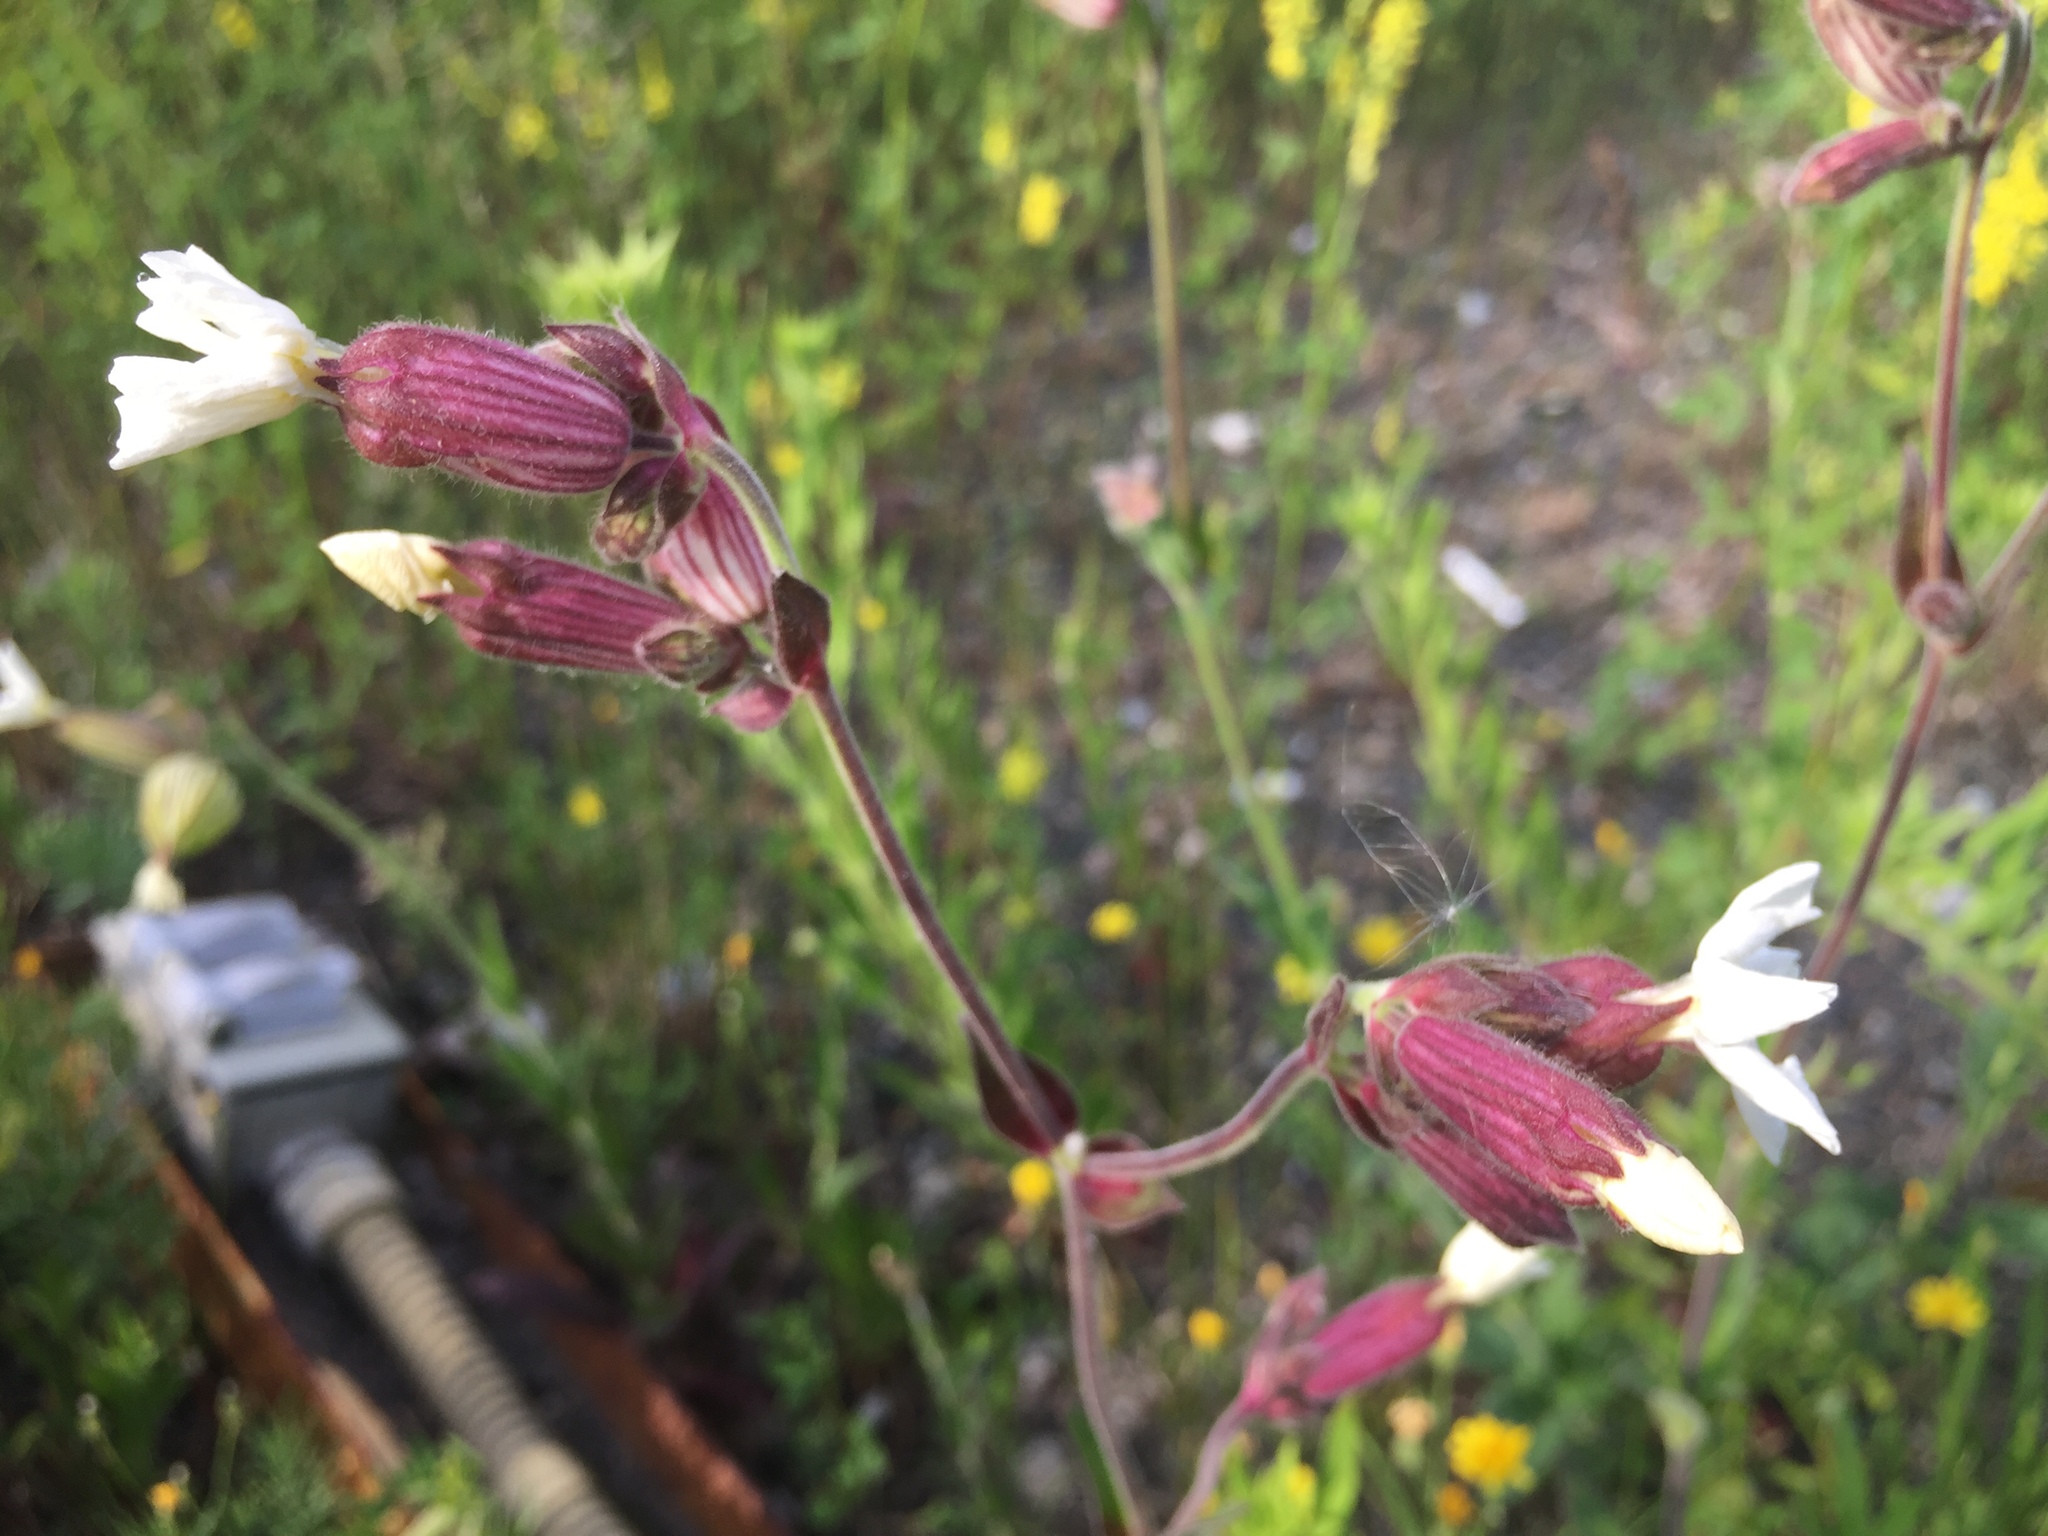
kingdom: Plantae
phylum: Tracheophyta
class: Magnoliopsida
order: Caryophyllales
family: Caryophyllaceae
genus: Silene
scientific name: Silene latifolia
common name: White campion
